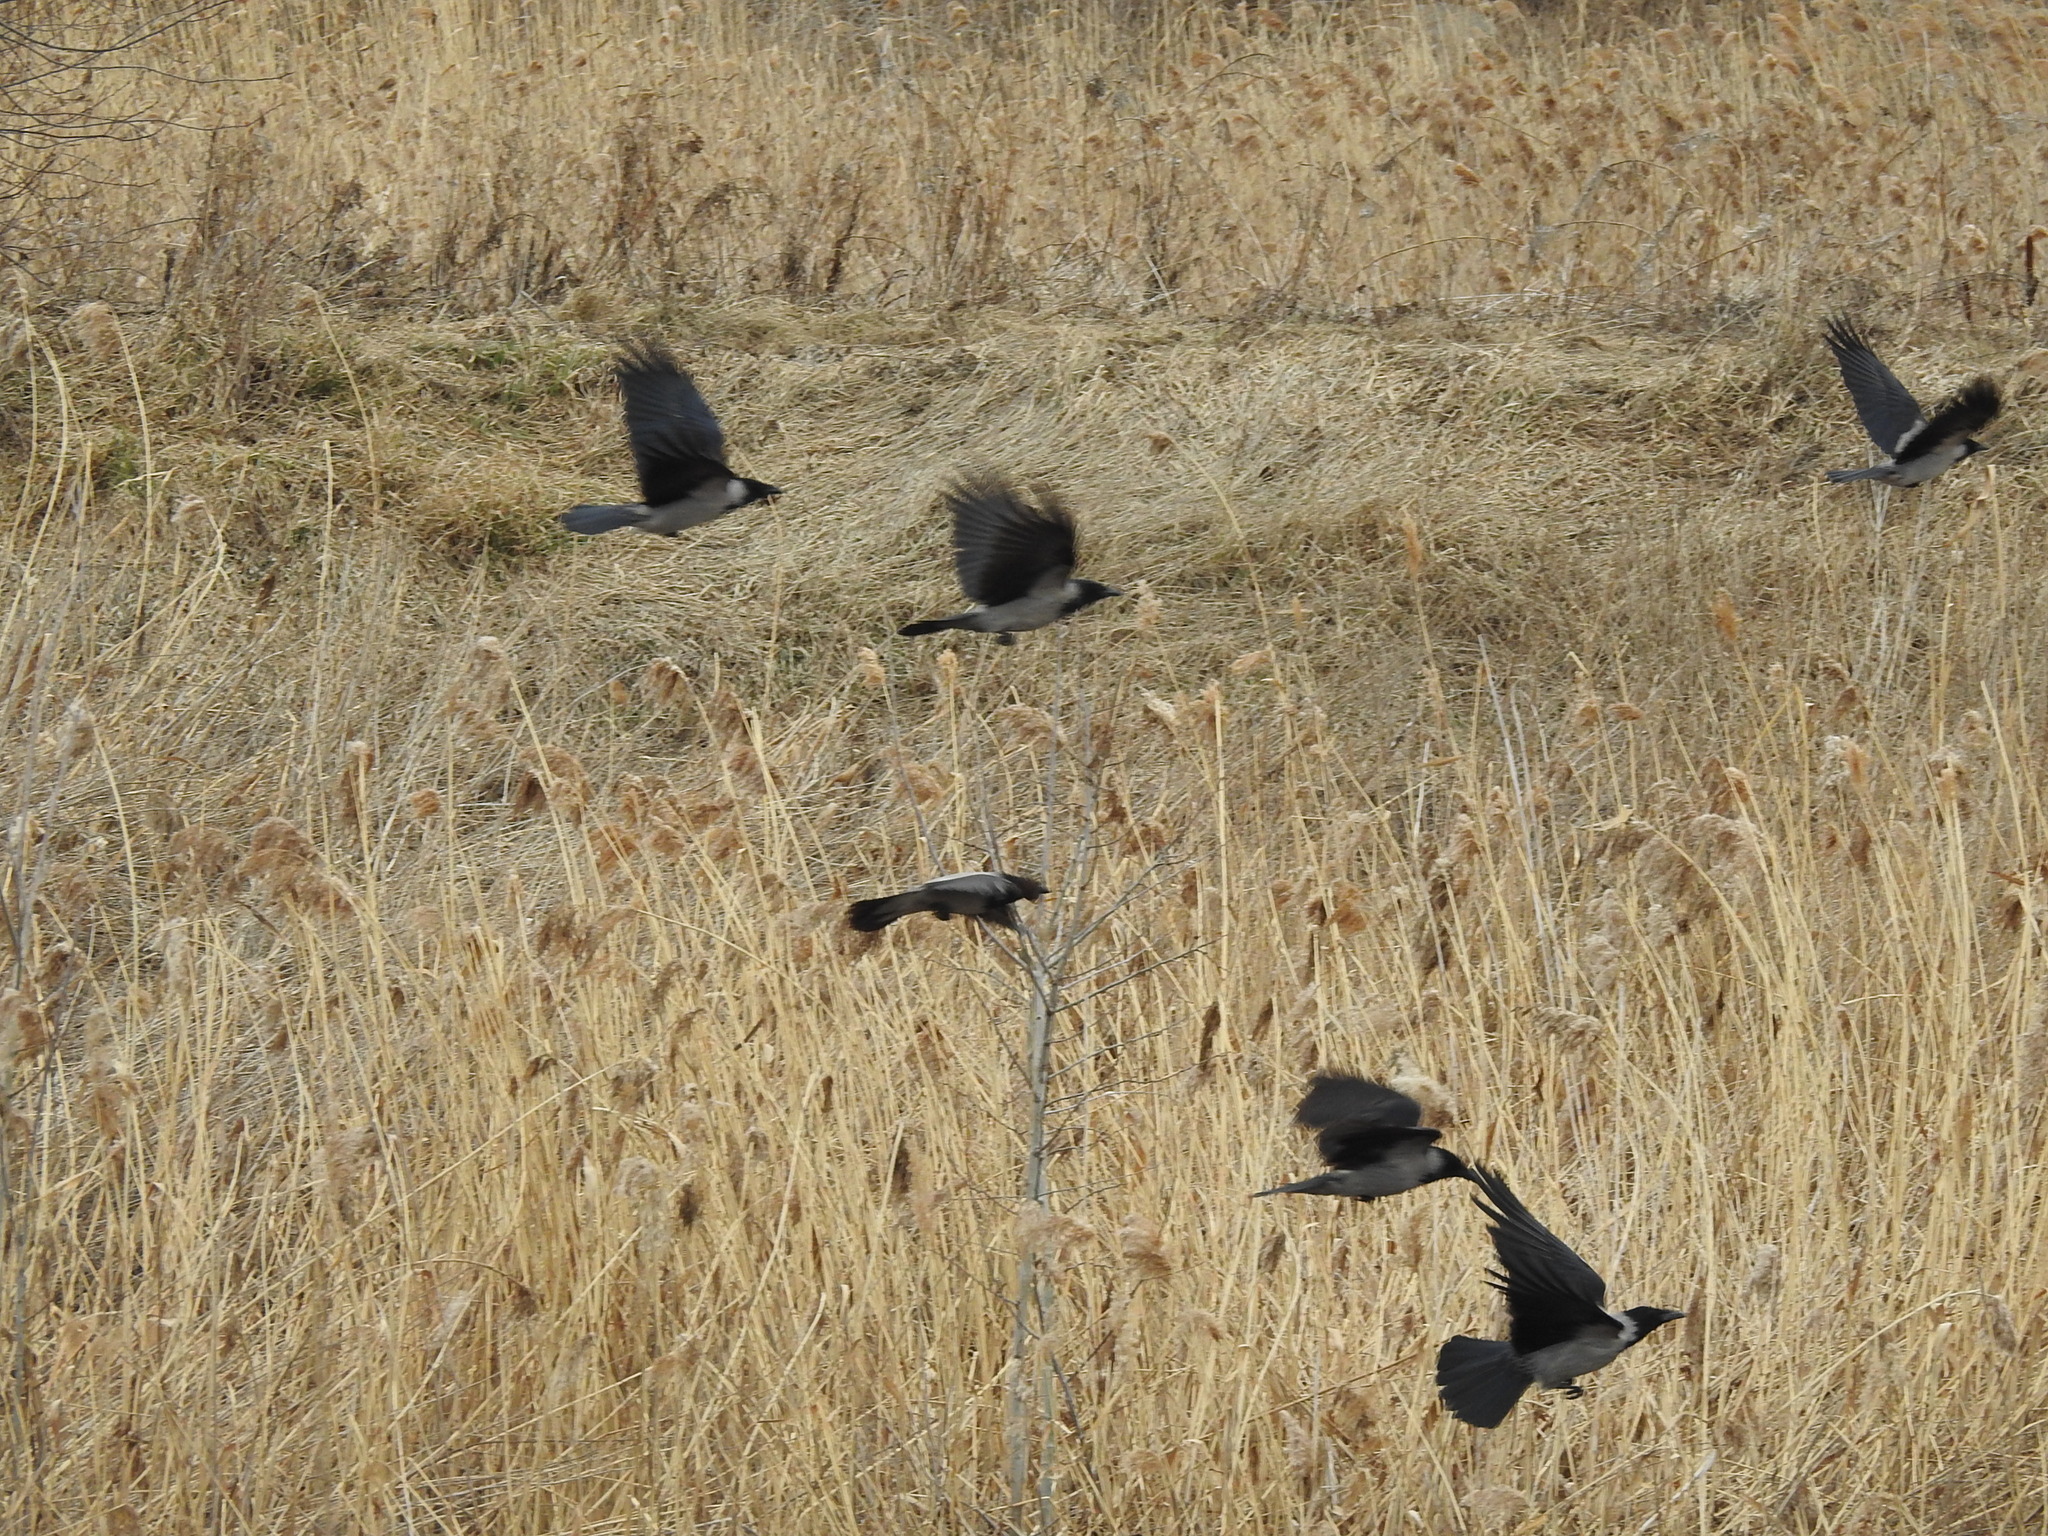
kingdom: Animalia
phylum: Chordata
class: Aves
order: Passeriformes
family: Corvidae
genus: Corvus
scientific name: Corvus cornix
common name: Hooded crow
